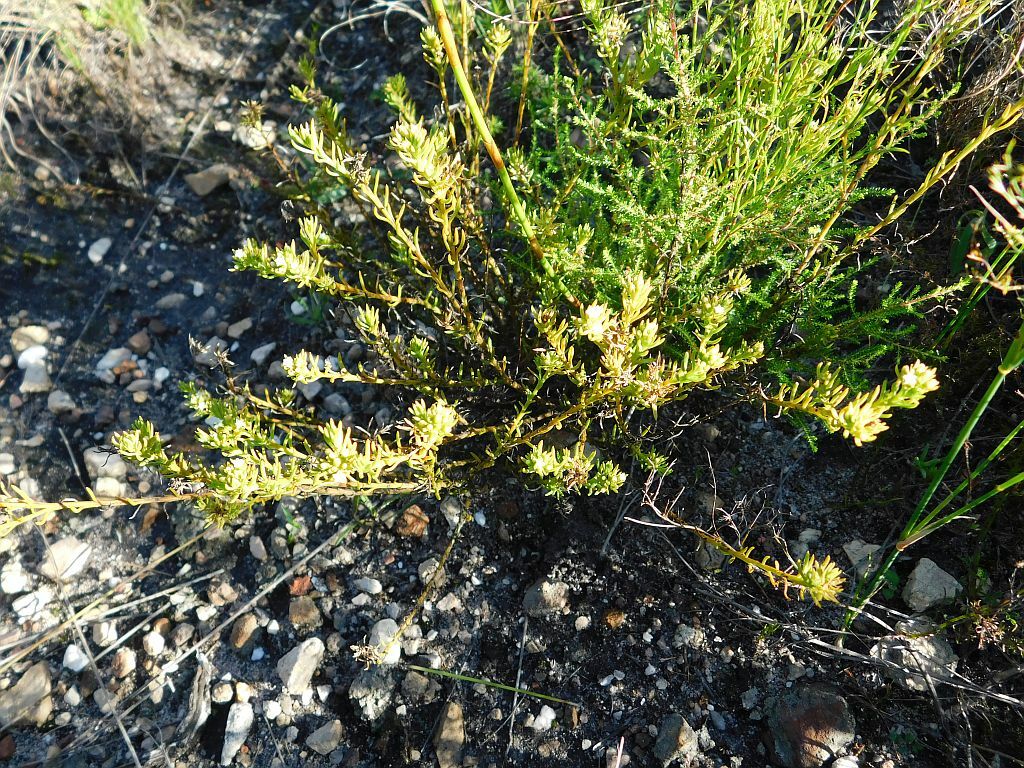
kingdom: Plantae
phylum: Tracheophyta
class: Magnoliopsida
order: Santalales
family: Thesiaceae
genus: Thesium
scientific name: Thesium capitatum
